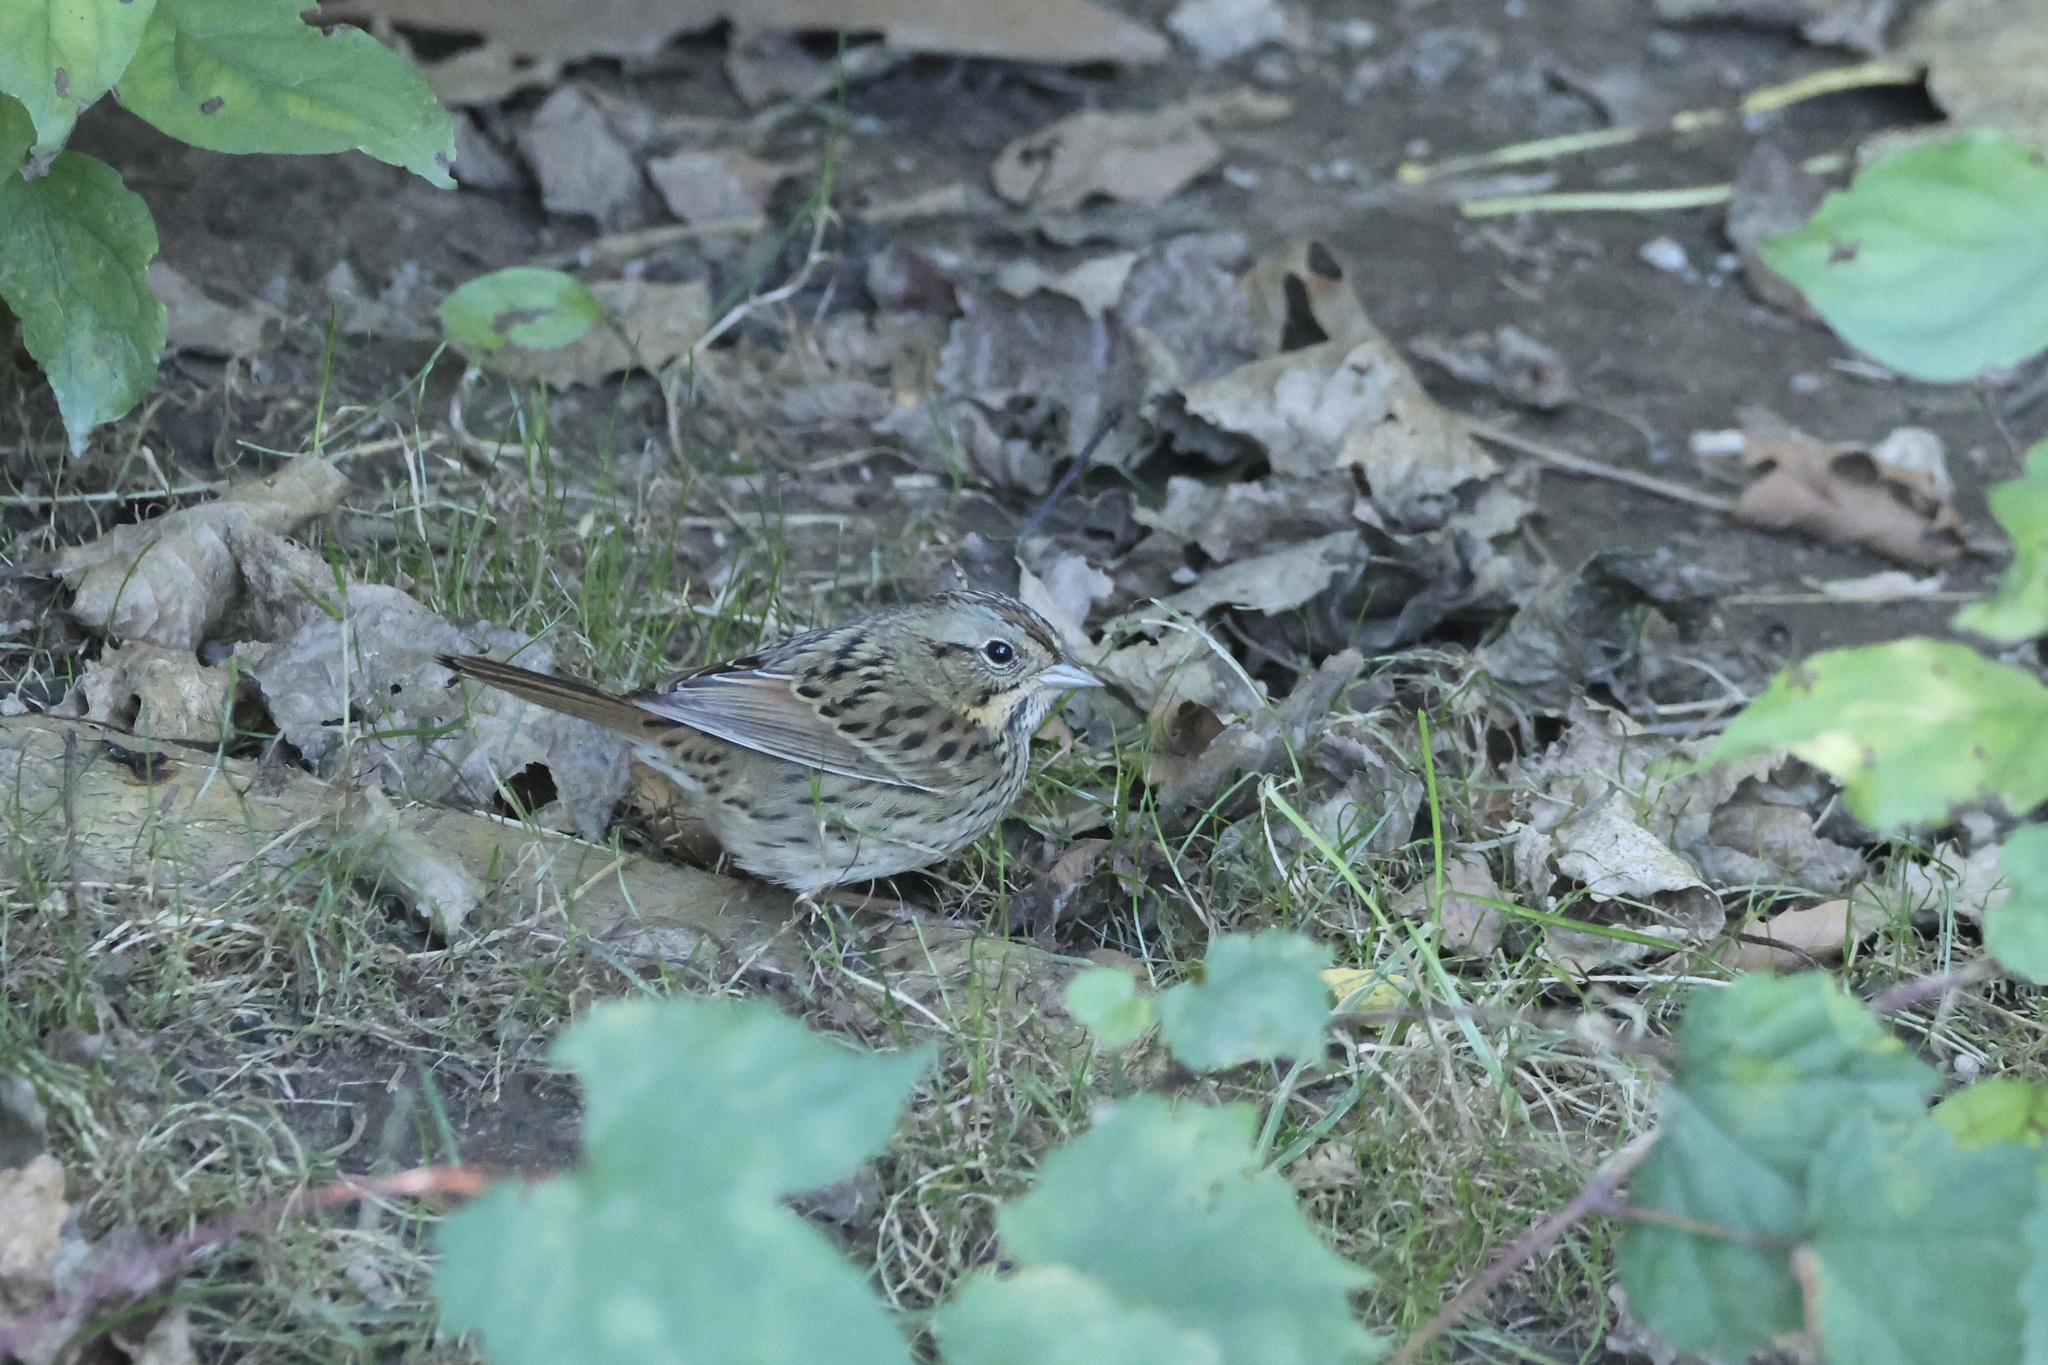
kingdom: Animalia
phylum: Chordata
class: Aves
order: Passeriformes
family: Passerellidae
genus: Melospiza
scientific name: Melospiza lincolnii
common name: Lincoln's sparrow
